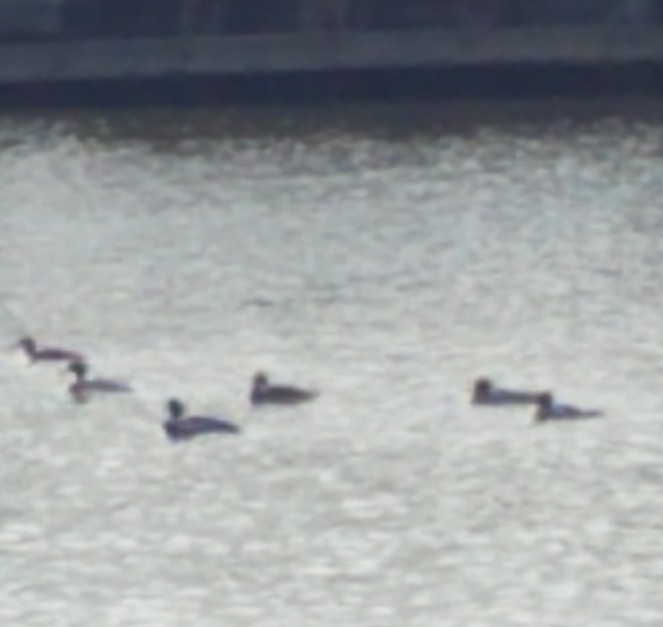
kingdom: Animalia
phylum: Chordata
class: Aves
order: Anseriformes
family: Anatidae
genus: Mergus
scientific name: Mergus serrator
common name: Red-breasted merganser
